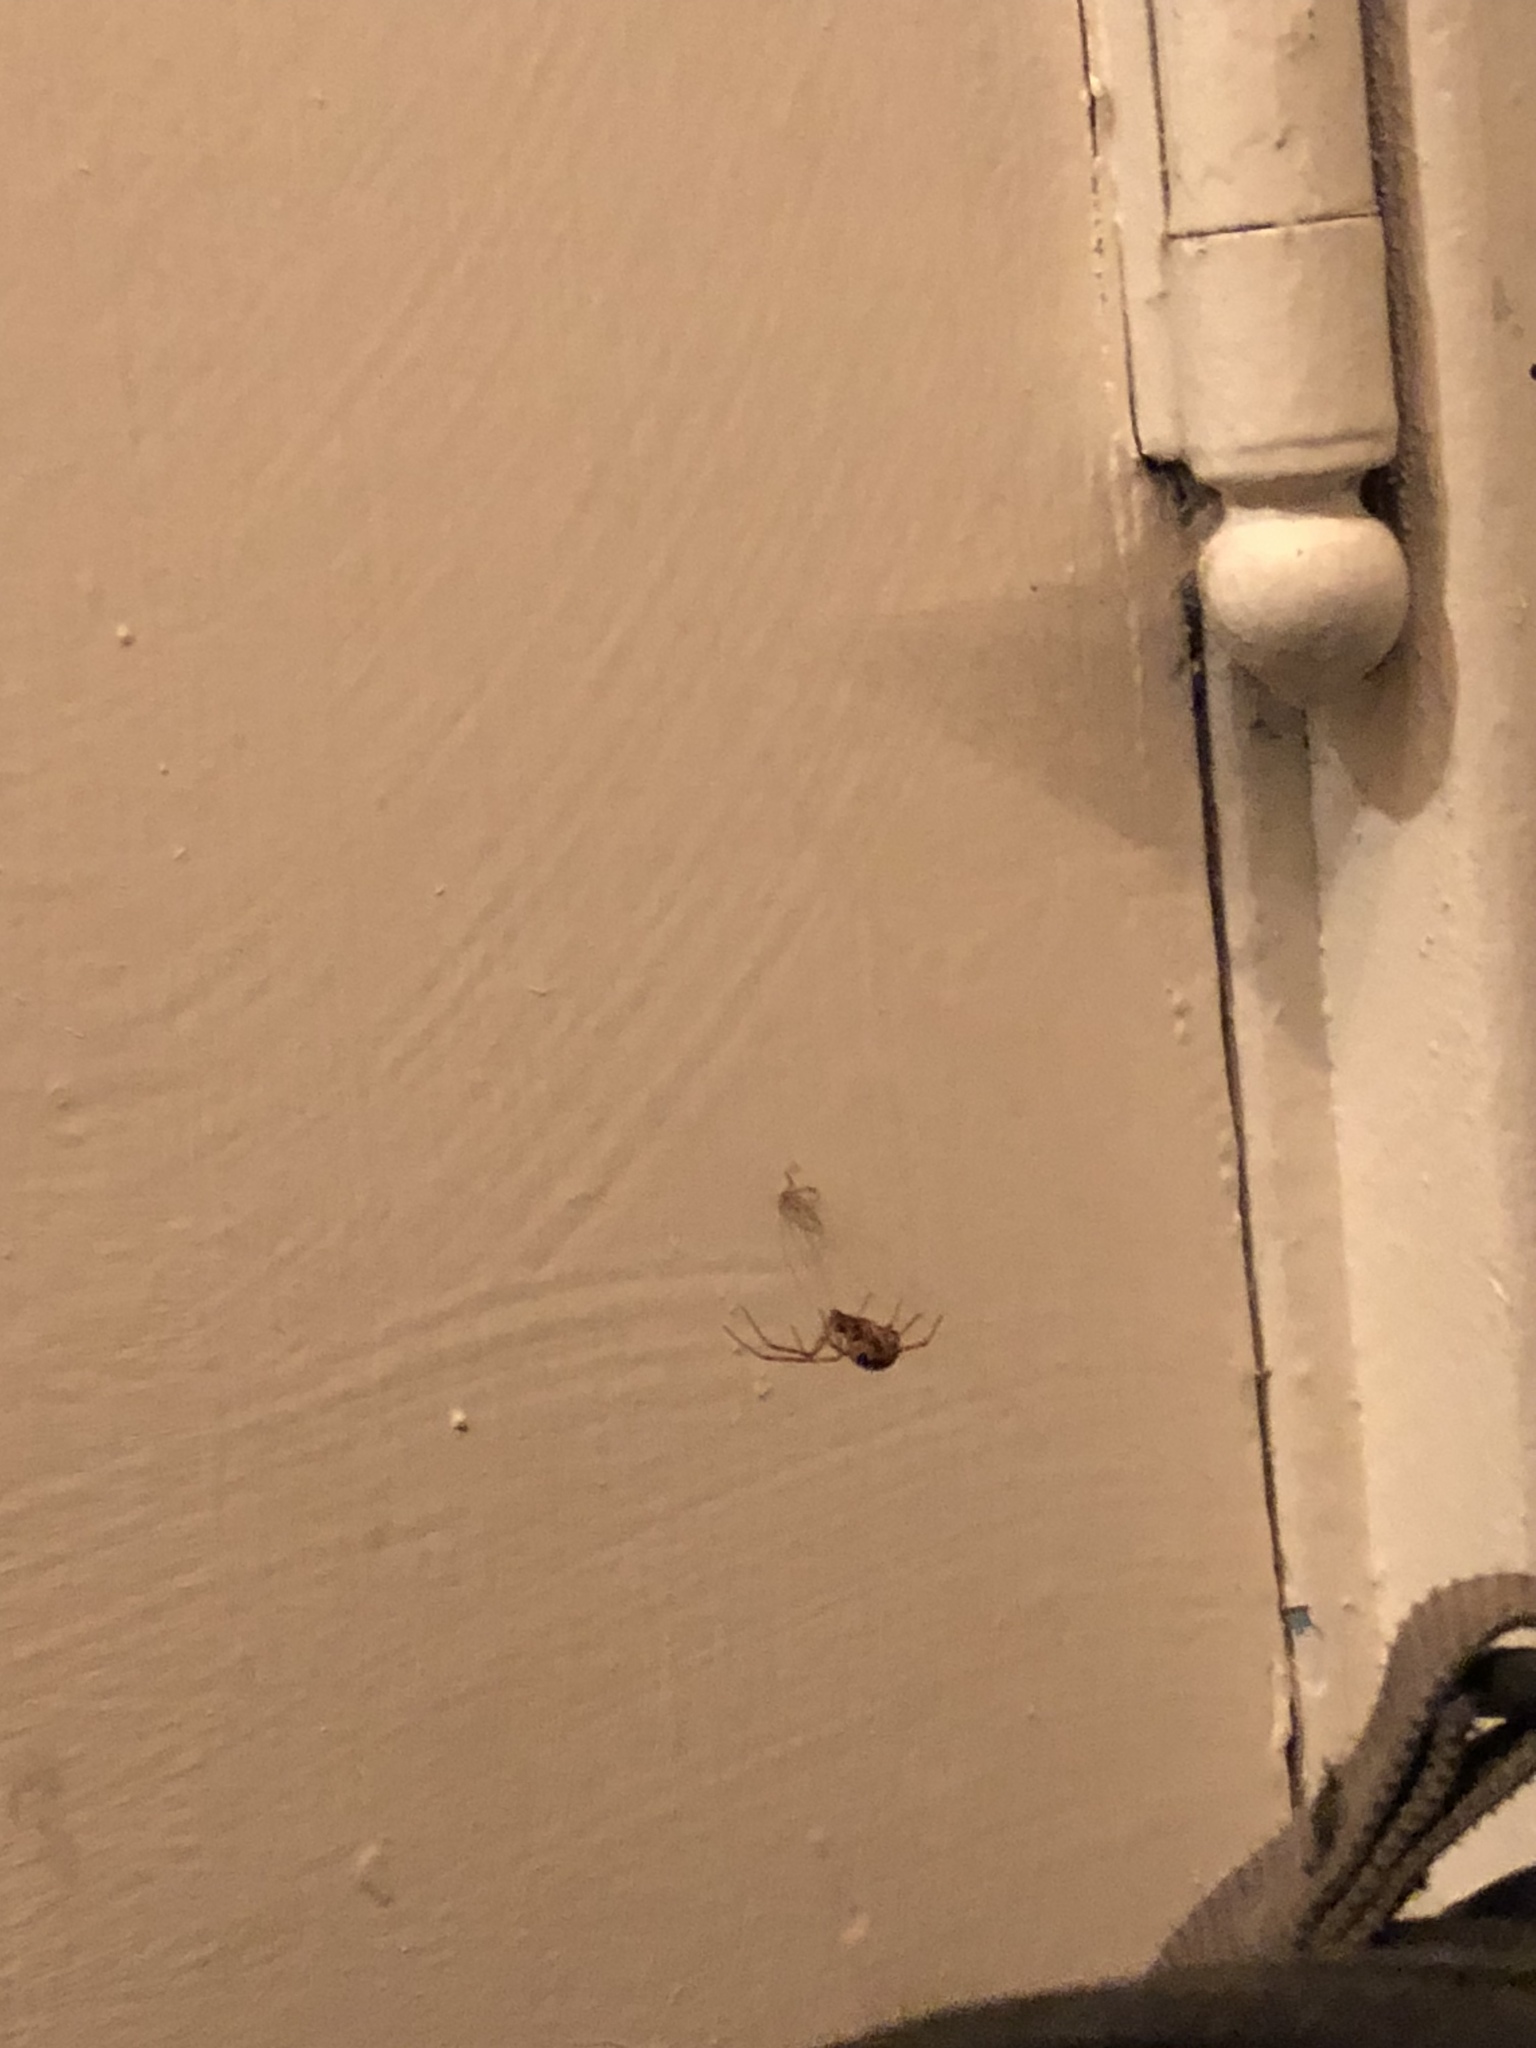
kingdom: Animalia
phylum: Arthropoda
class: Arachnida
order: Araneae
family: Theridiidae
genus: Steatoda
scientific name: Steatoda triangulosa
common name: Triangulate bud spider
